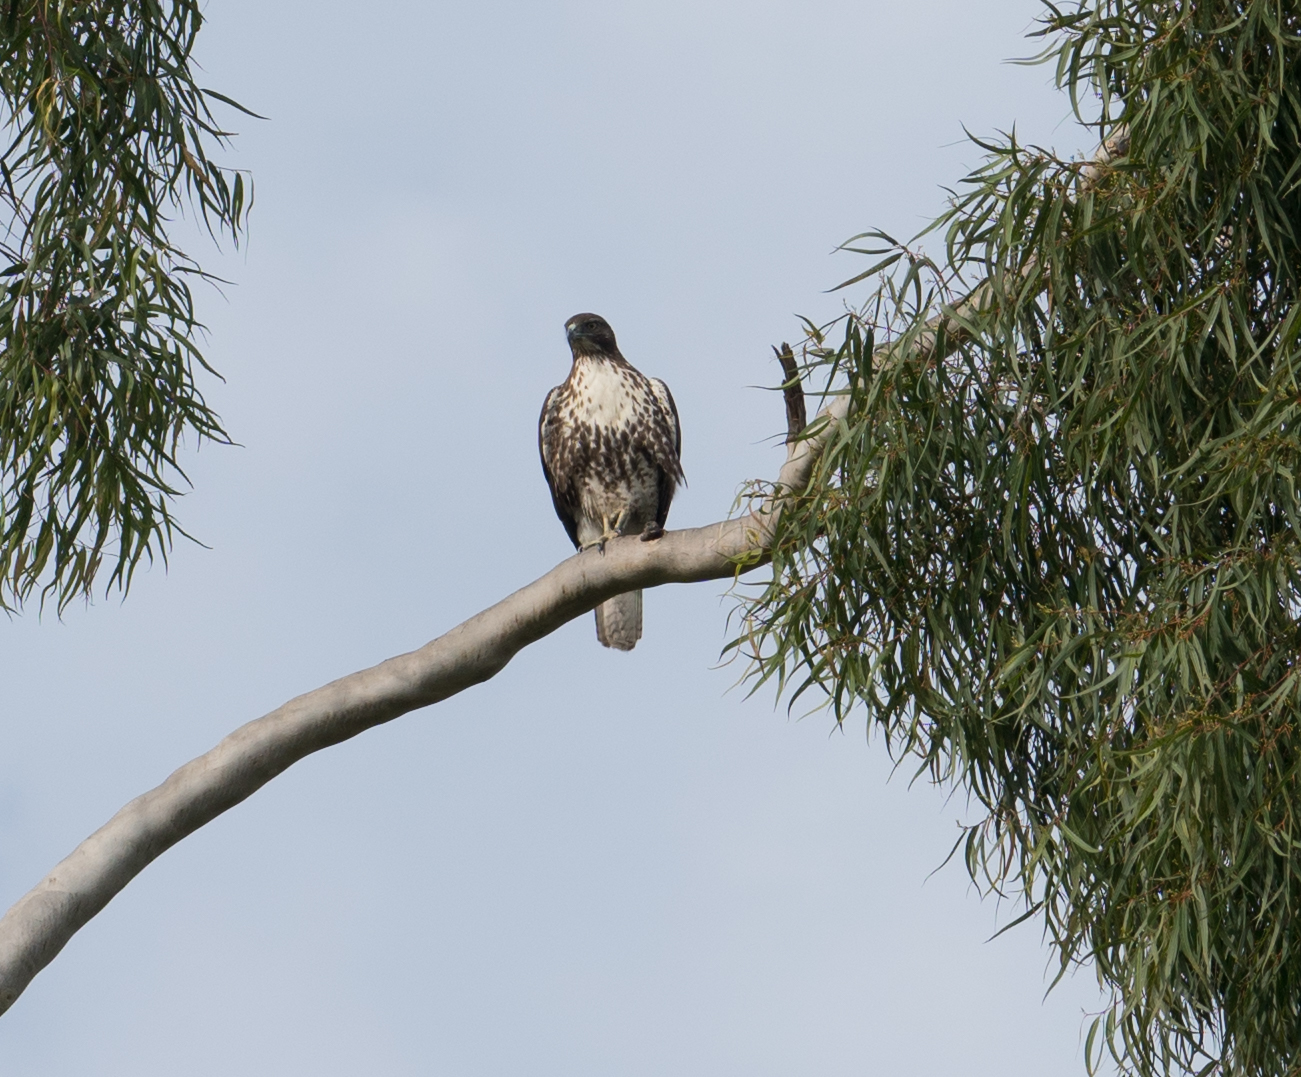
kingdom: Animalia
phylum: Chordata
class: Aves
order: Accipitriformes
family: Accipitridae
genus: Buteo
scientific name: Buteo jamaicensis
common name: Red-tailed hawk
